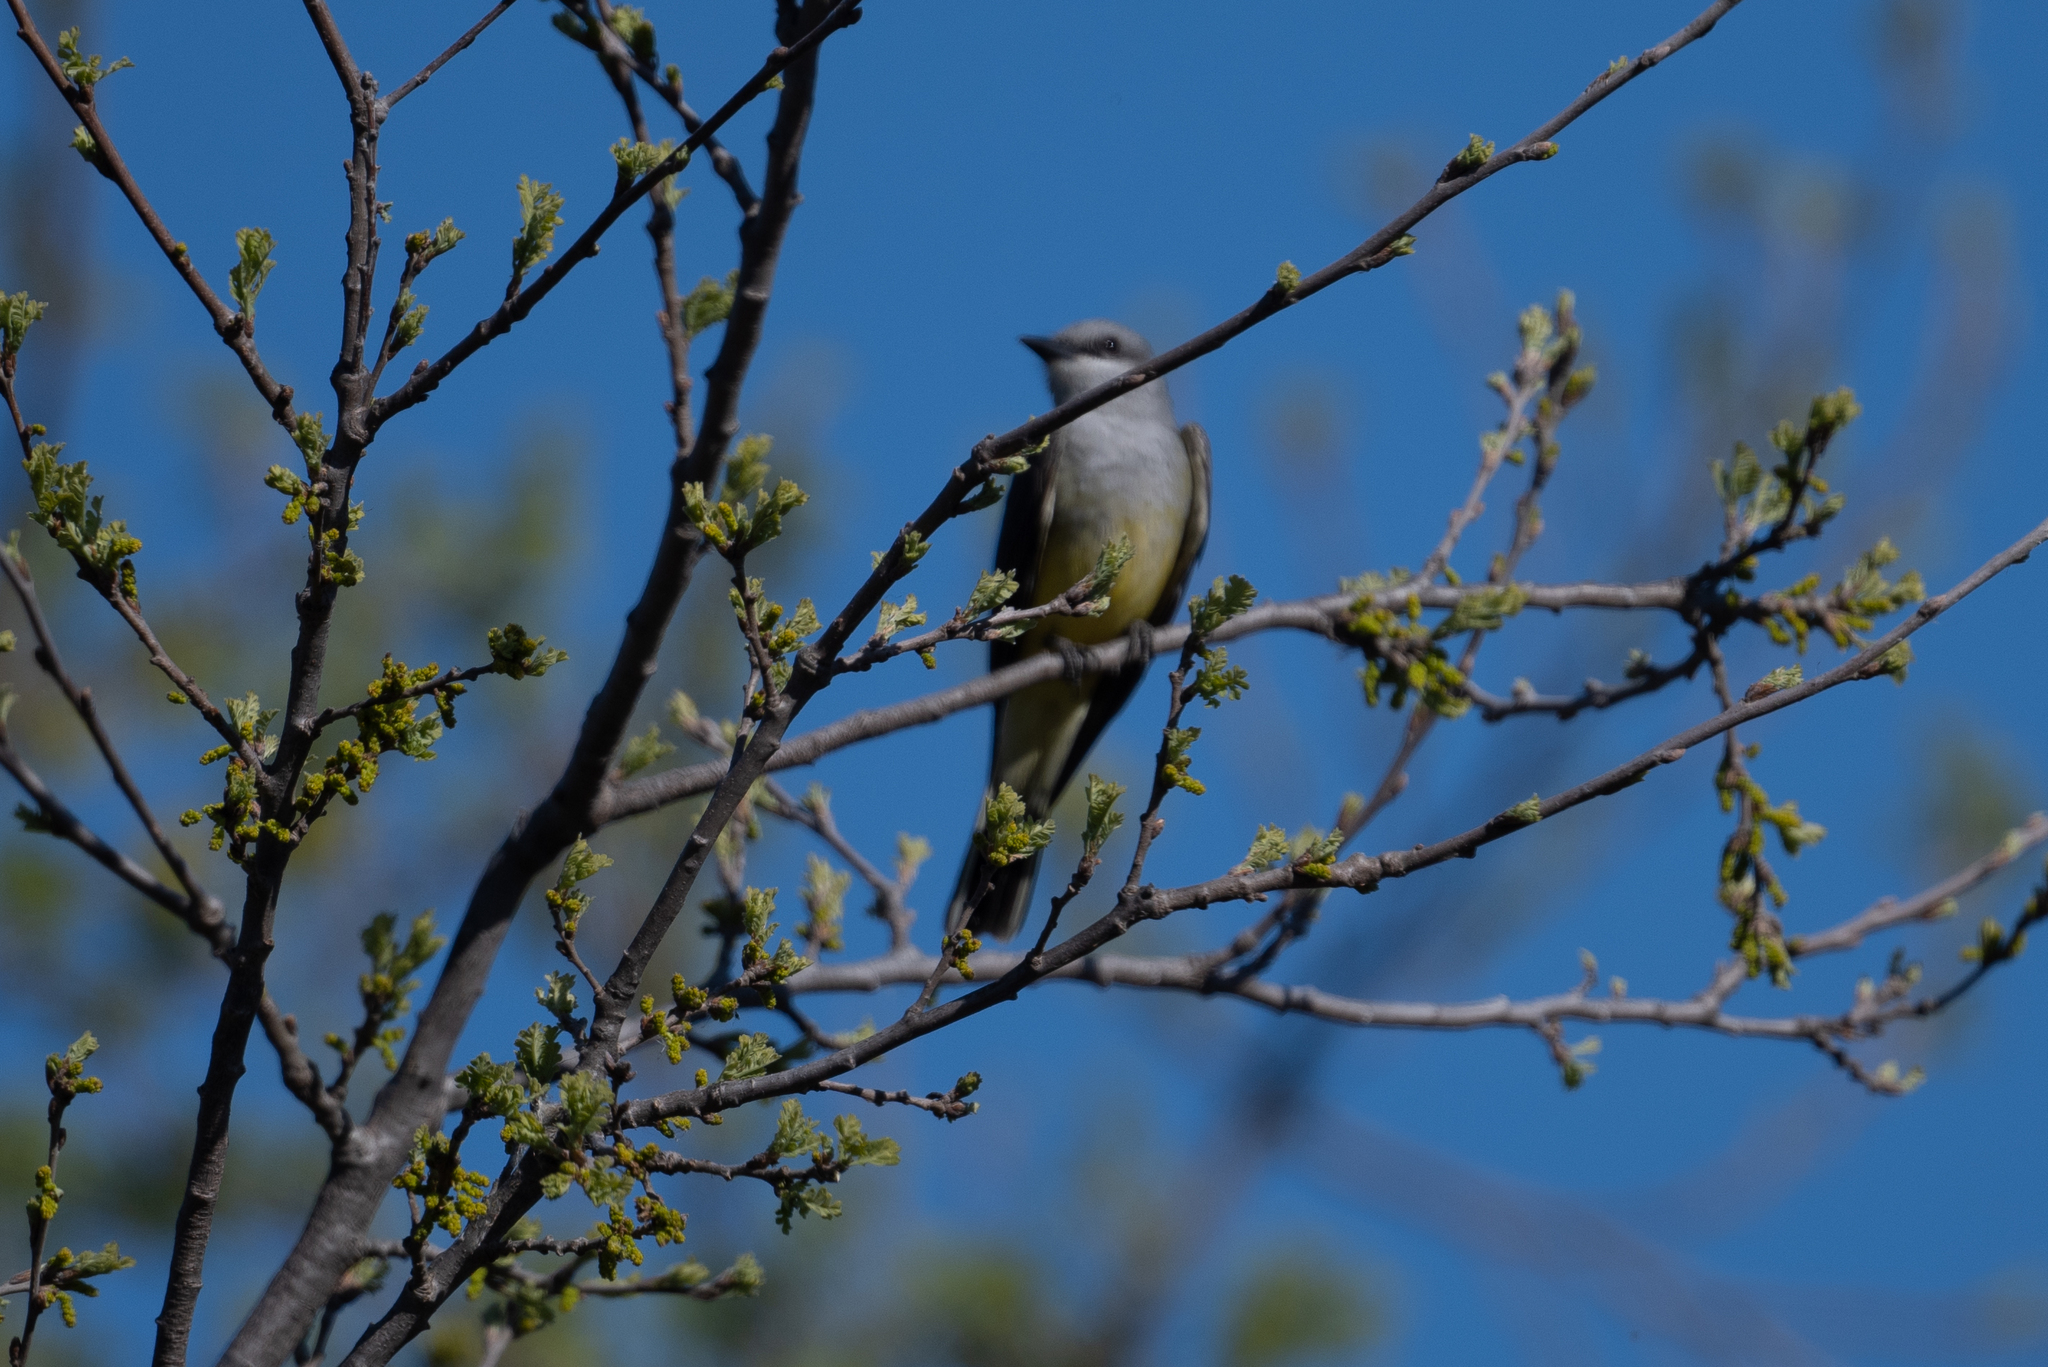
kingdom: Animalia
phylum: Chordata
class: Aves
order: Passeriformes
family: Tyrannidae
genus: Tyrannus
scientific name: Tyrannus verticalis
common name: Western kingbird
